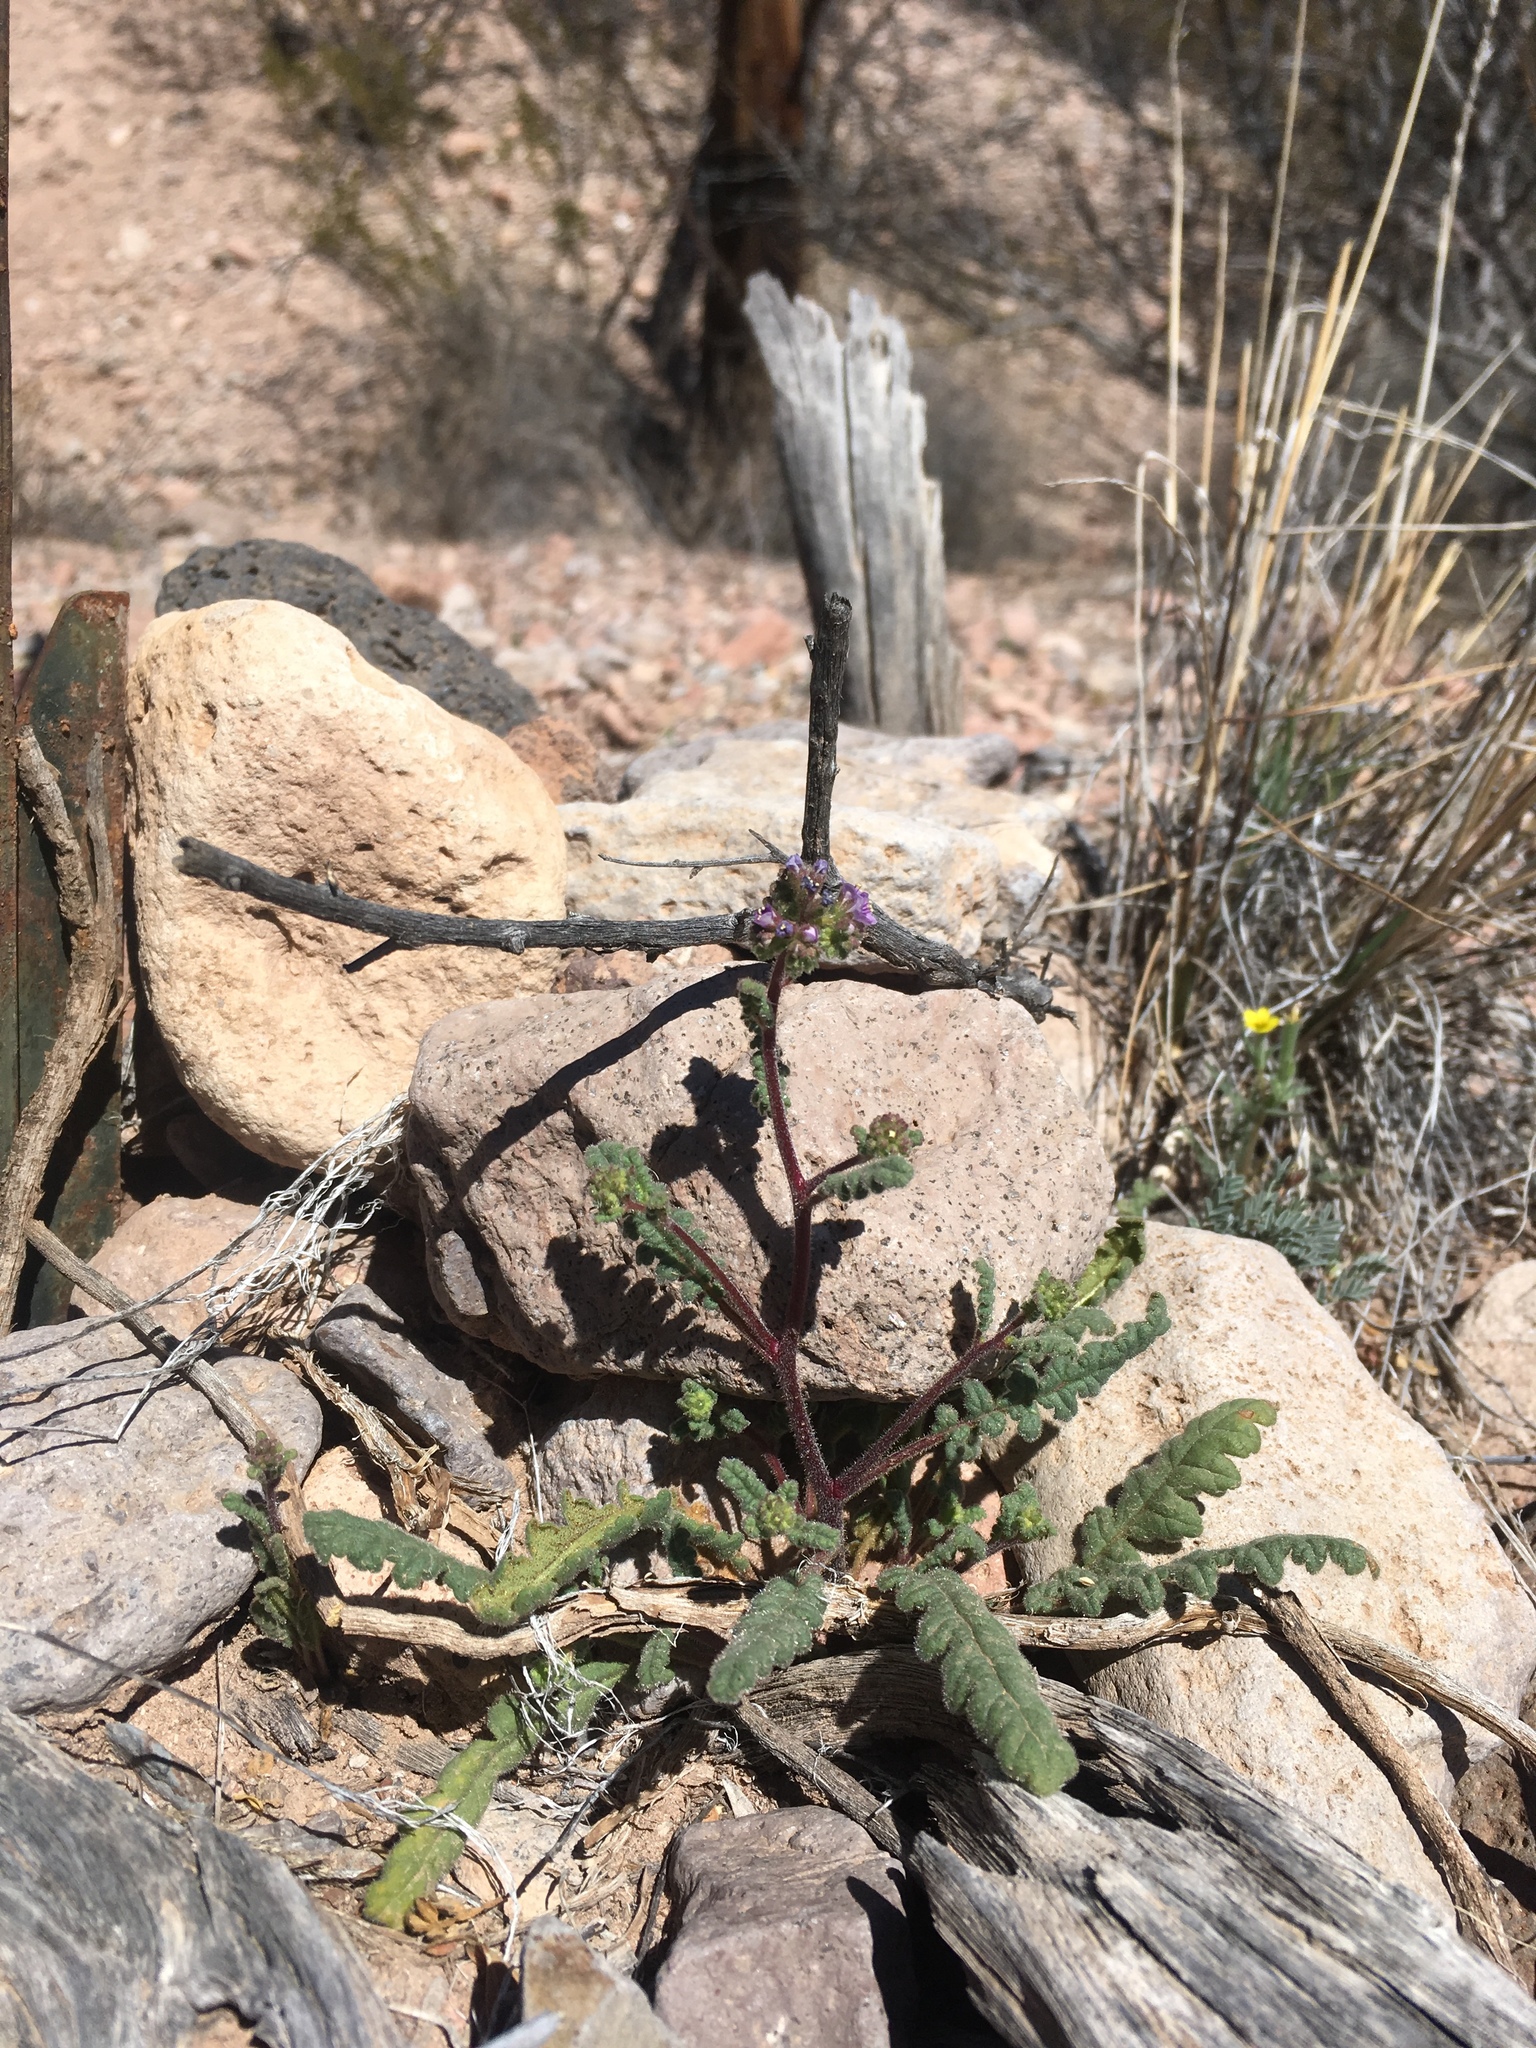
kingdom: Plantae
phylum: Tracheophyta
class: Magnoliopsida
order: Boraginales
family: Hydrophyllaceae
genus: Phacelia
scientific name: Phacelia coerulea
